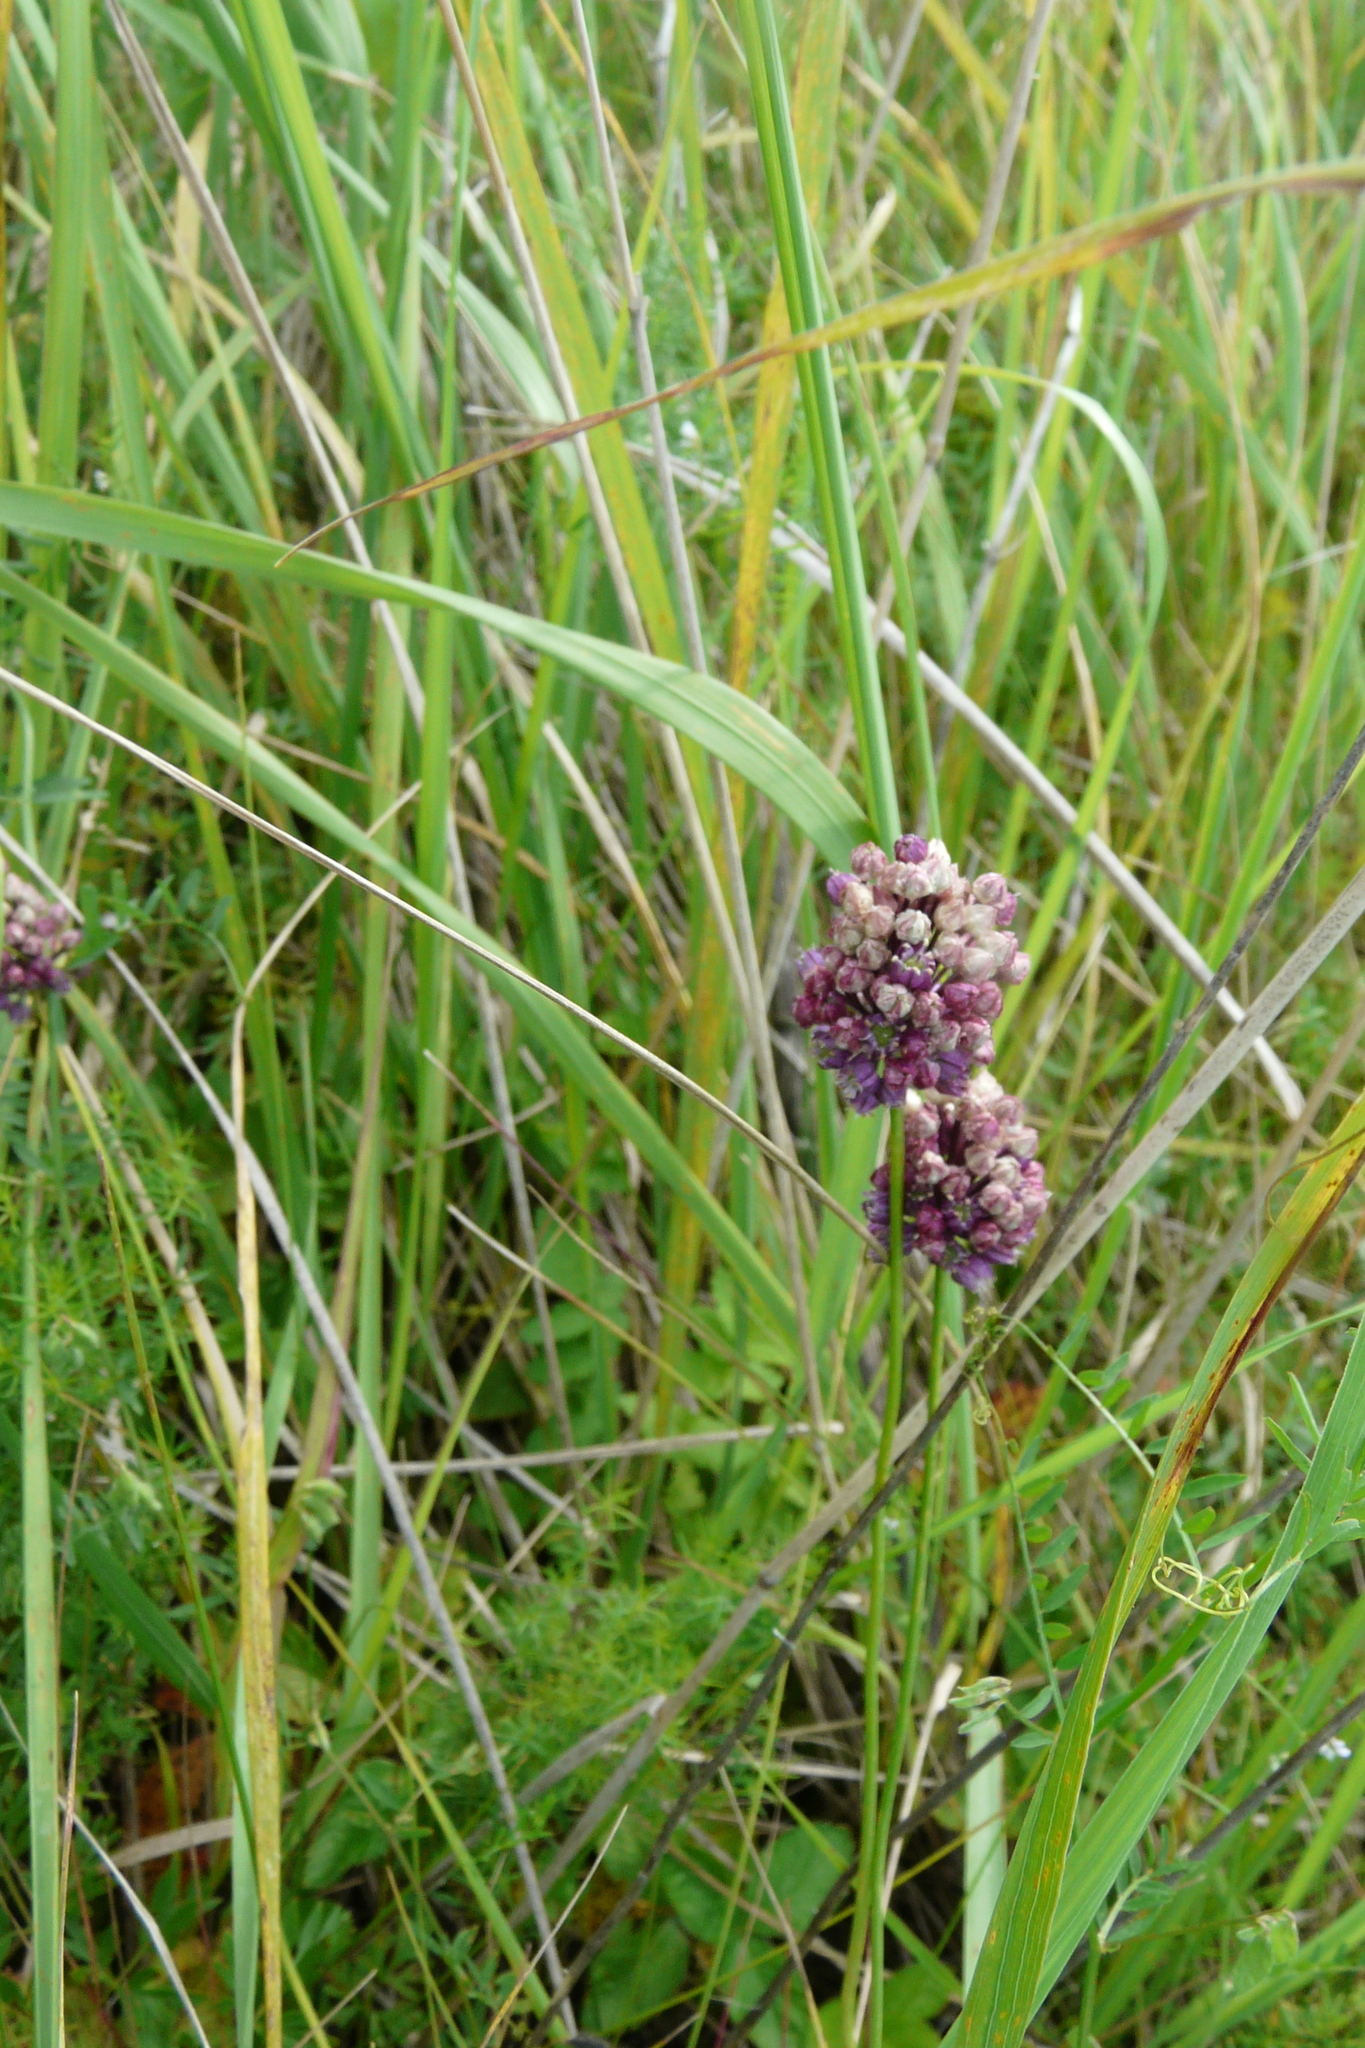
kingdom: Plantae
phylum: Tracheophyta
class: Liliopsida
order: Asparagales
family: Amaryllidaceae
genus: Allium
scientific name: Allium rotundum
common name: Sand leek
